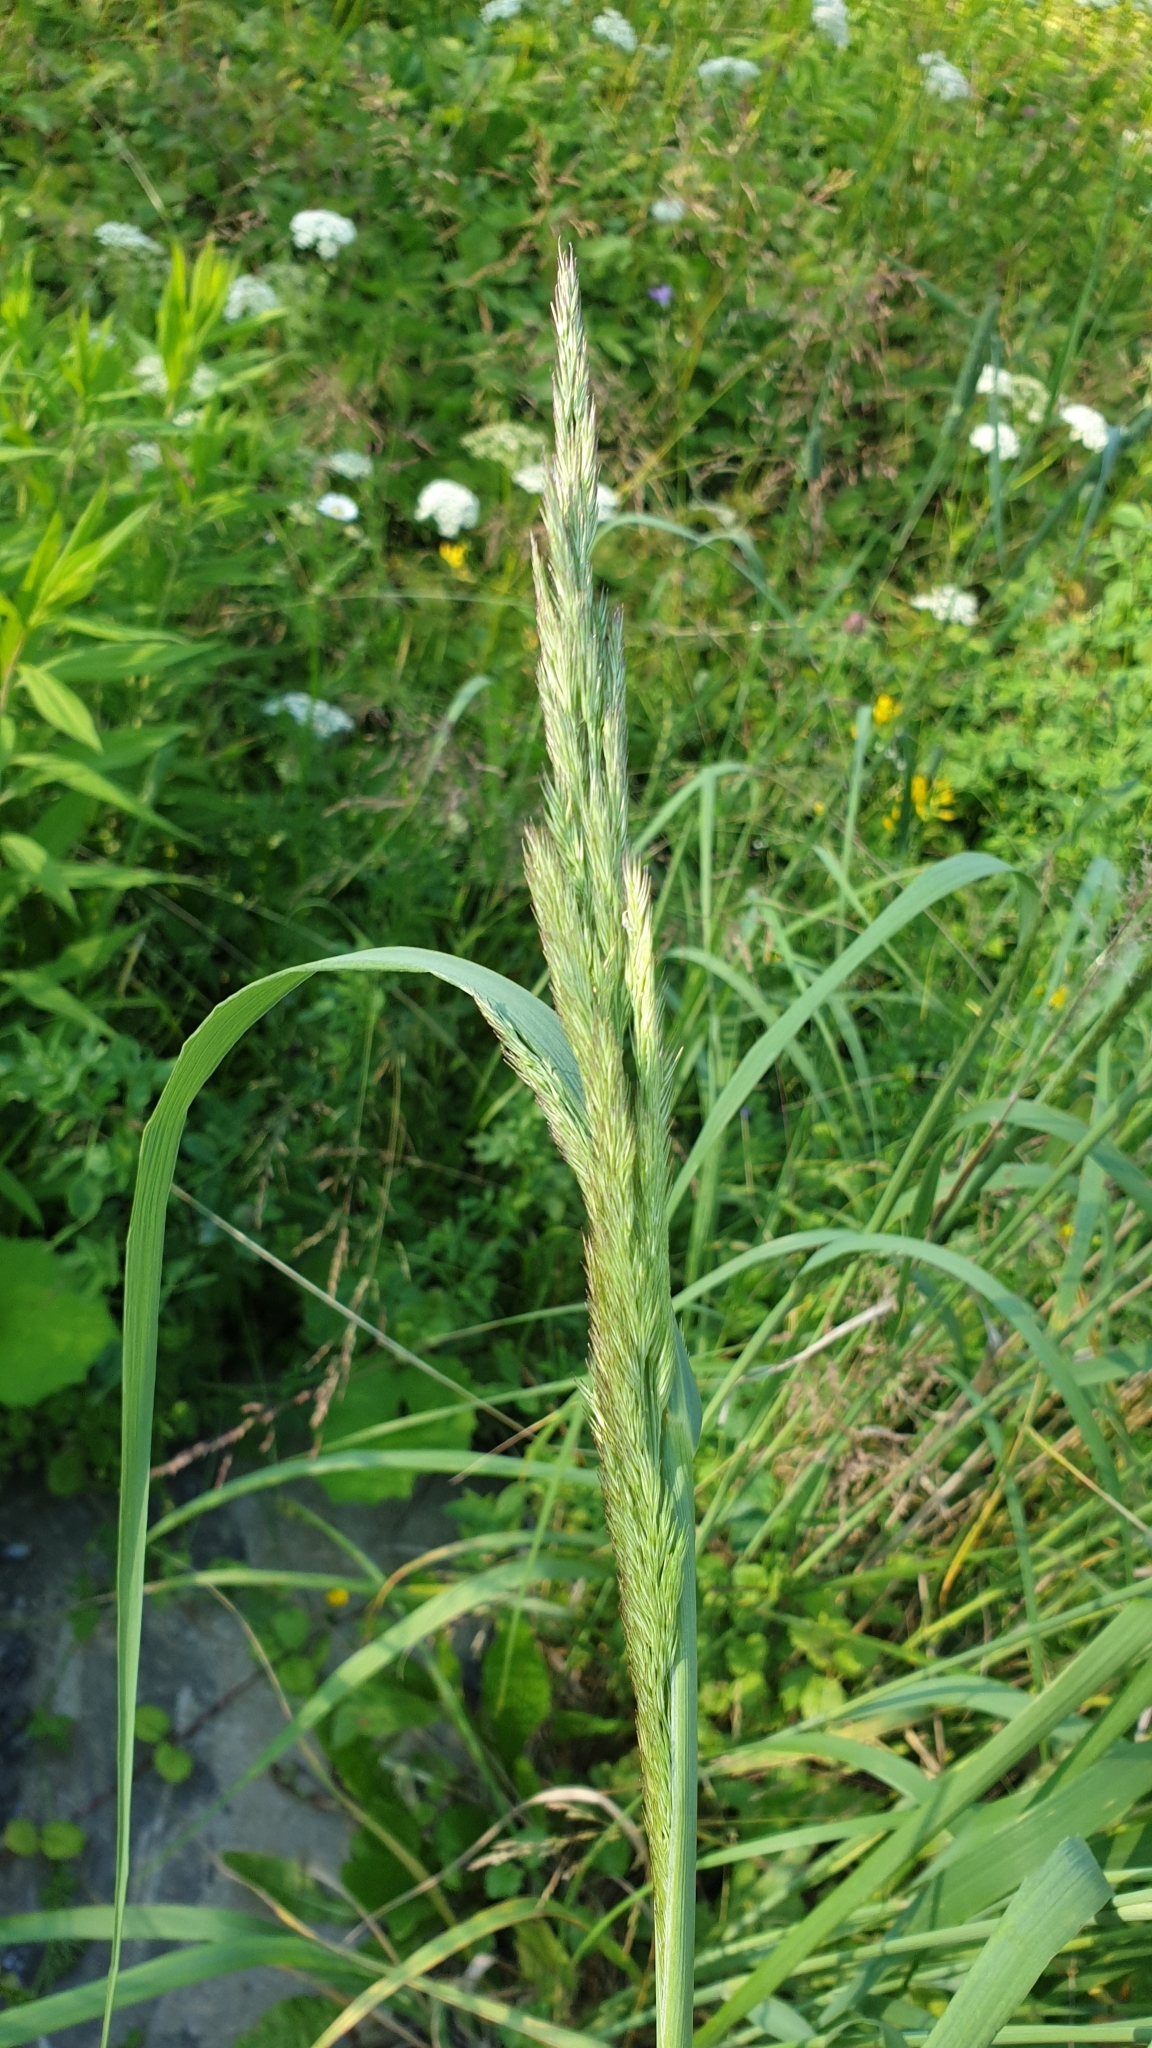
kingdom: Plantae
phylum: Tracheophyta
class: Liliopsida
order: Poales
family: Poaceae
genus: Calamagrostis
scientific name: Calamagrostis epigejos
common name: Wood small-reed
